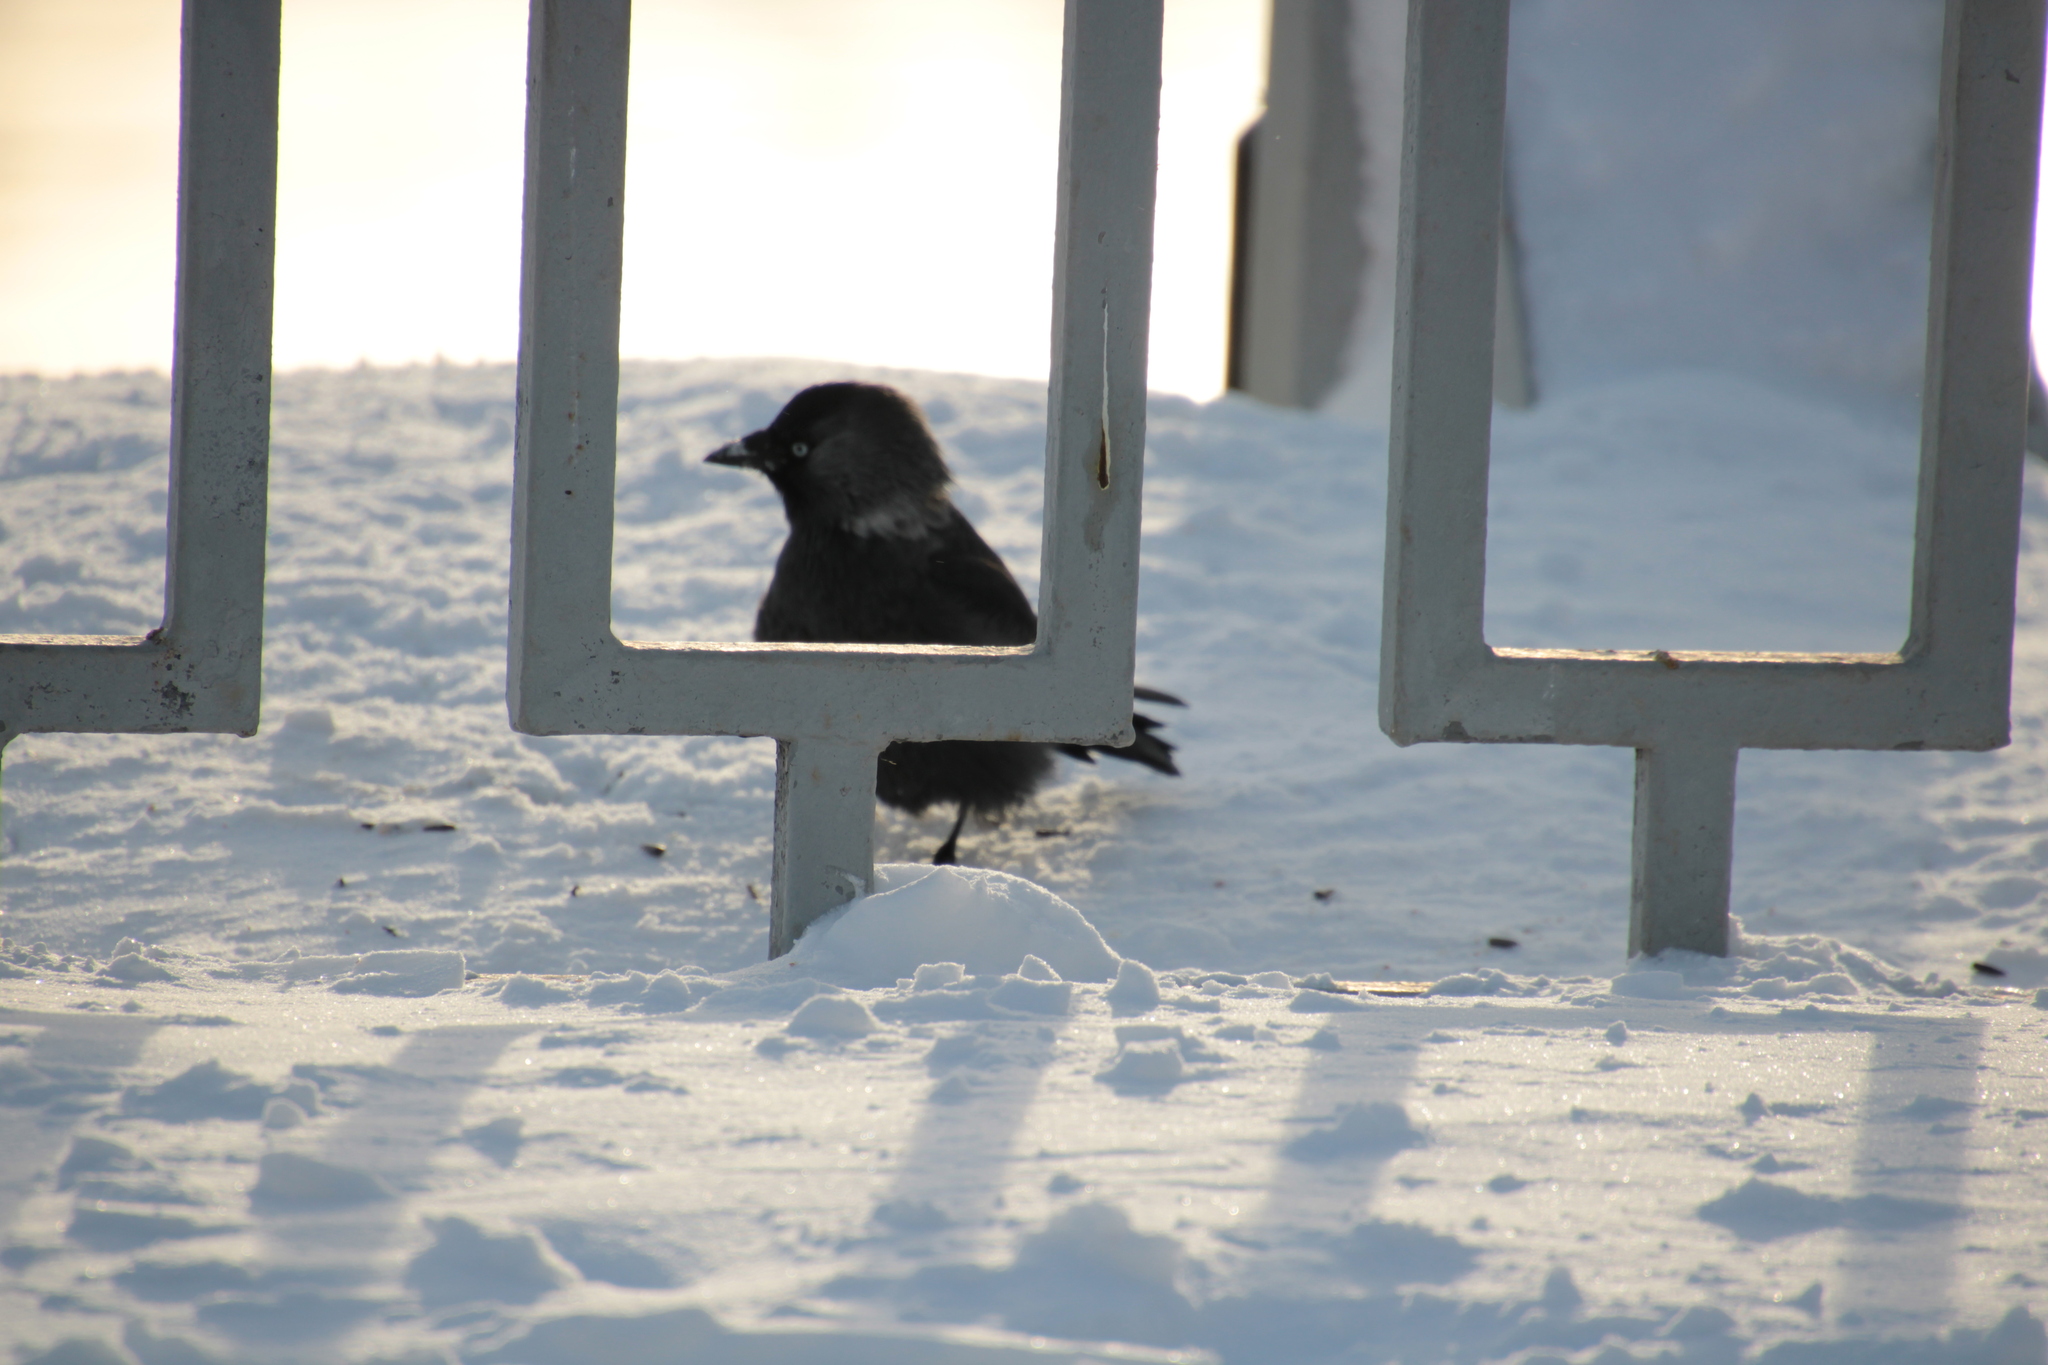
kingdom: Animalia
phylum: Chordata
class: Aves
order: Passeriformes
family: Corvidae
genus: Coloeus
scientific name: Coloeus monedula
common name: Western jackdaw
